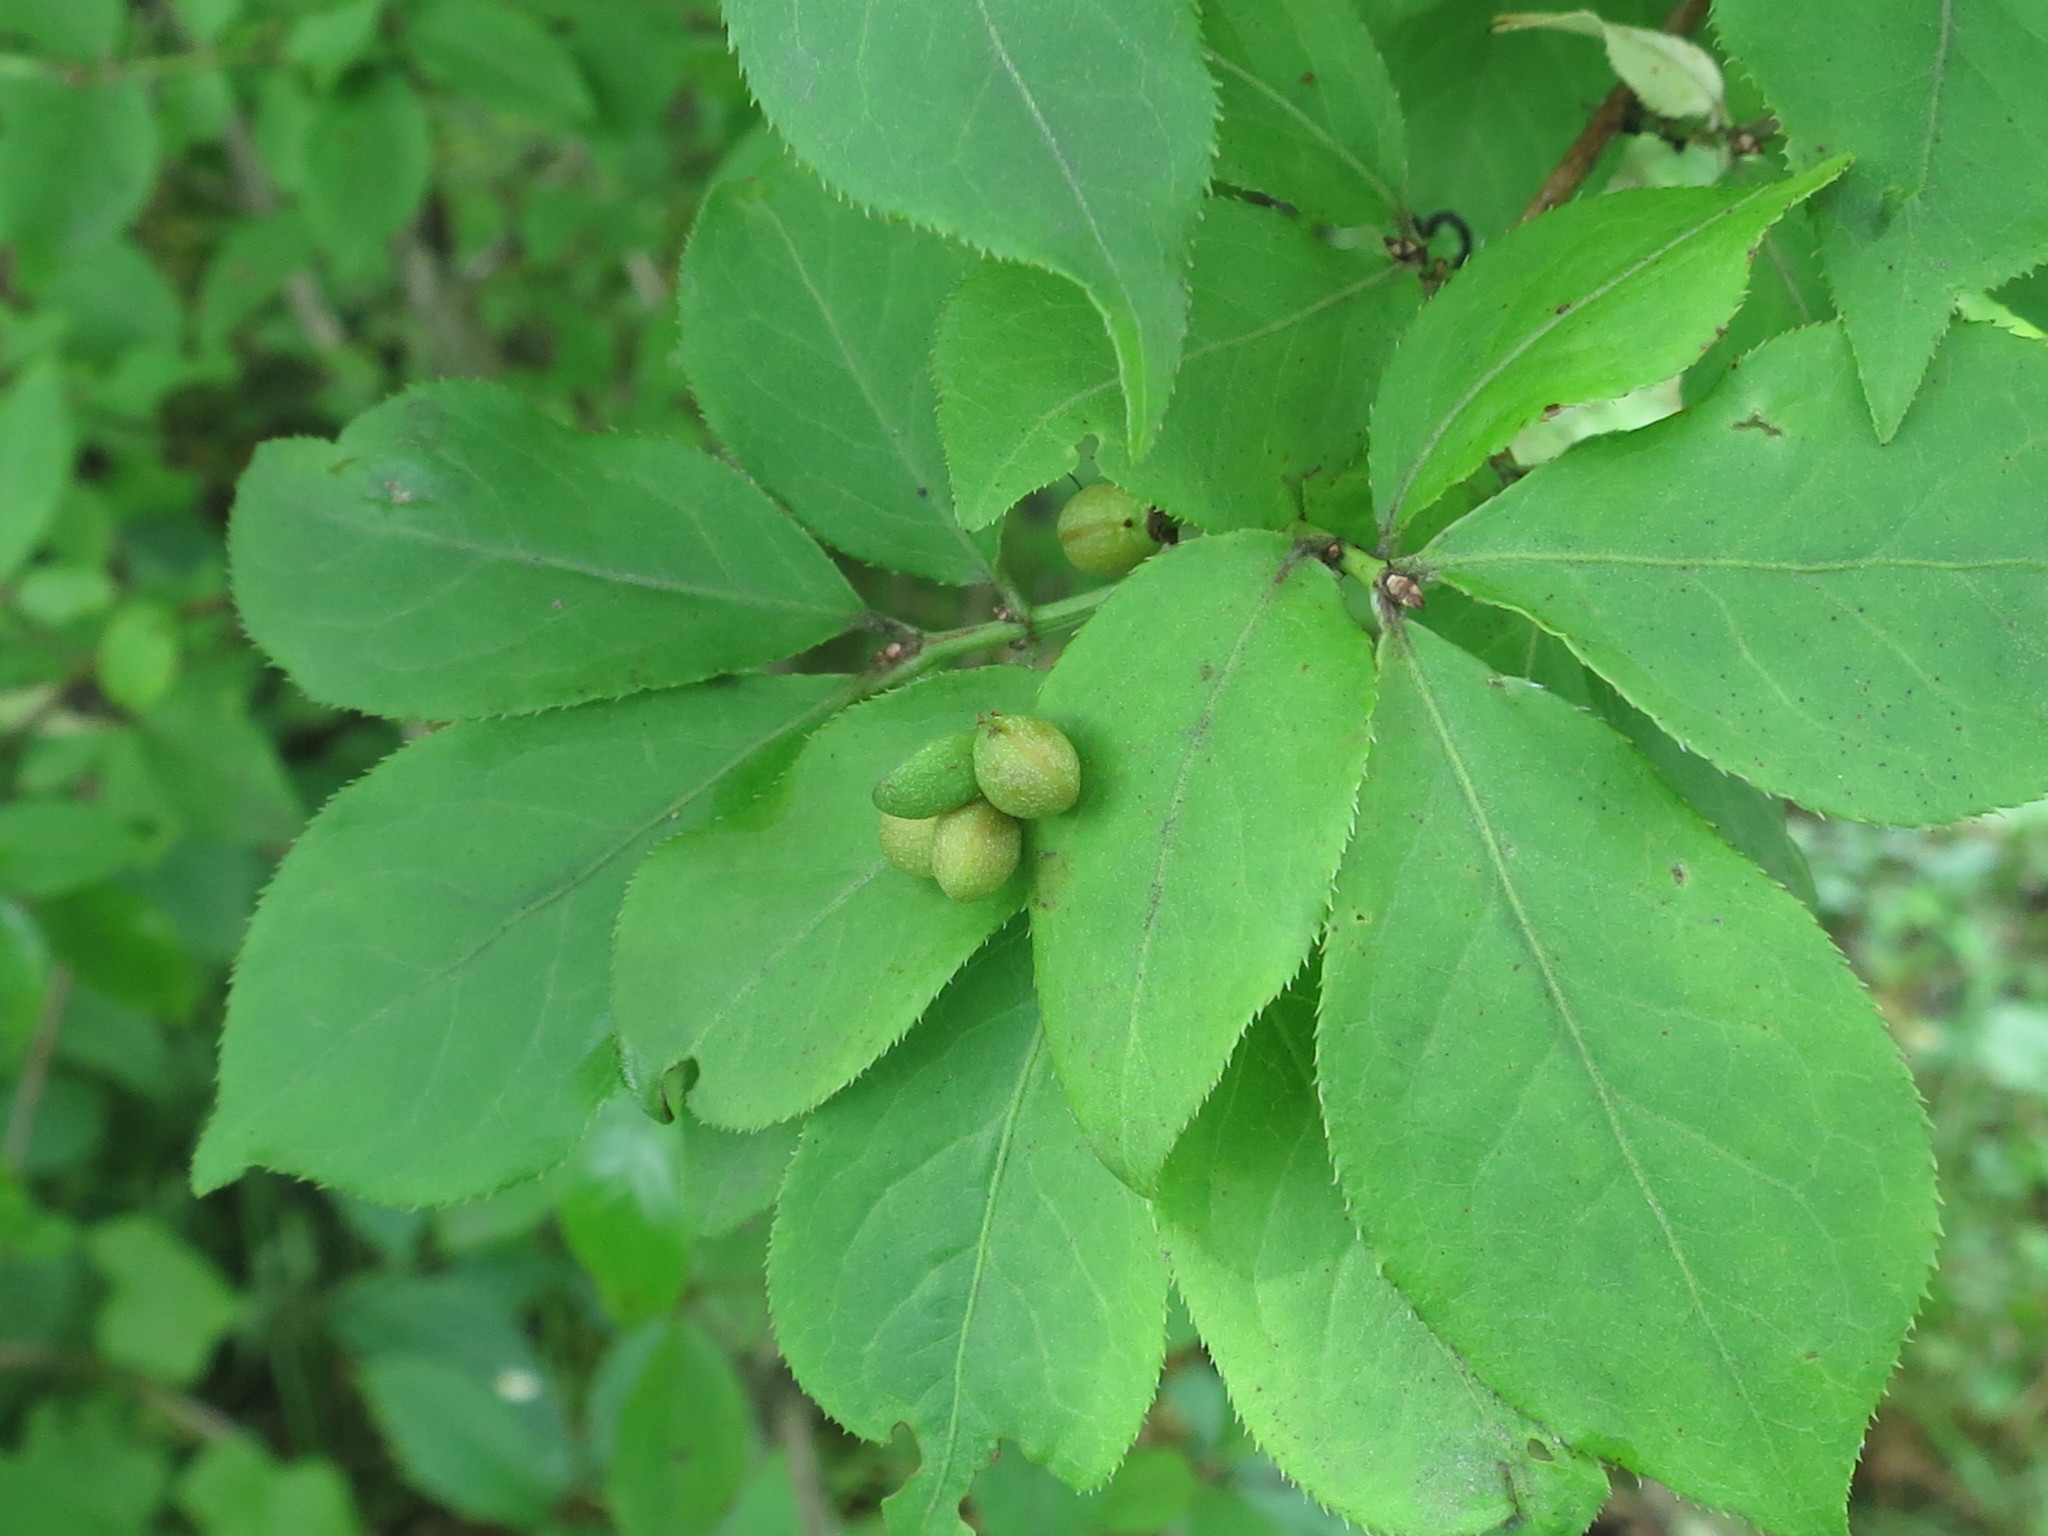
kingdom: Plantae
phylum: Tracheophyta
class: Magnoliopsida
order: Celastrales
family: Celastraceae
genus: Euonymus
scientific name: Euonymus alatus
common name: Winged euonymus
